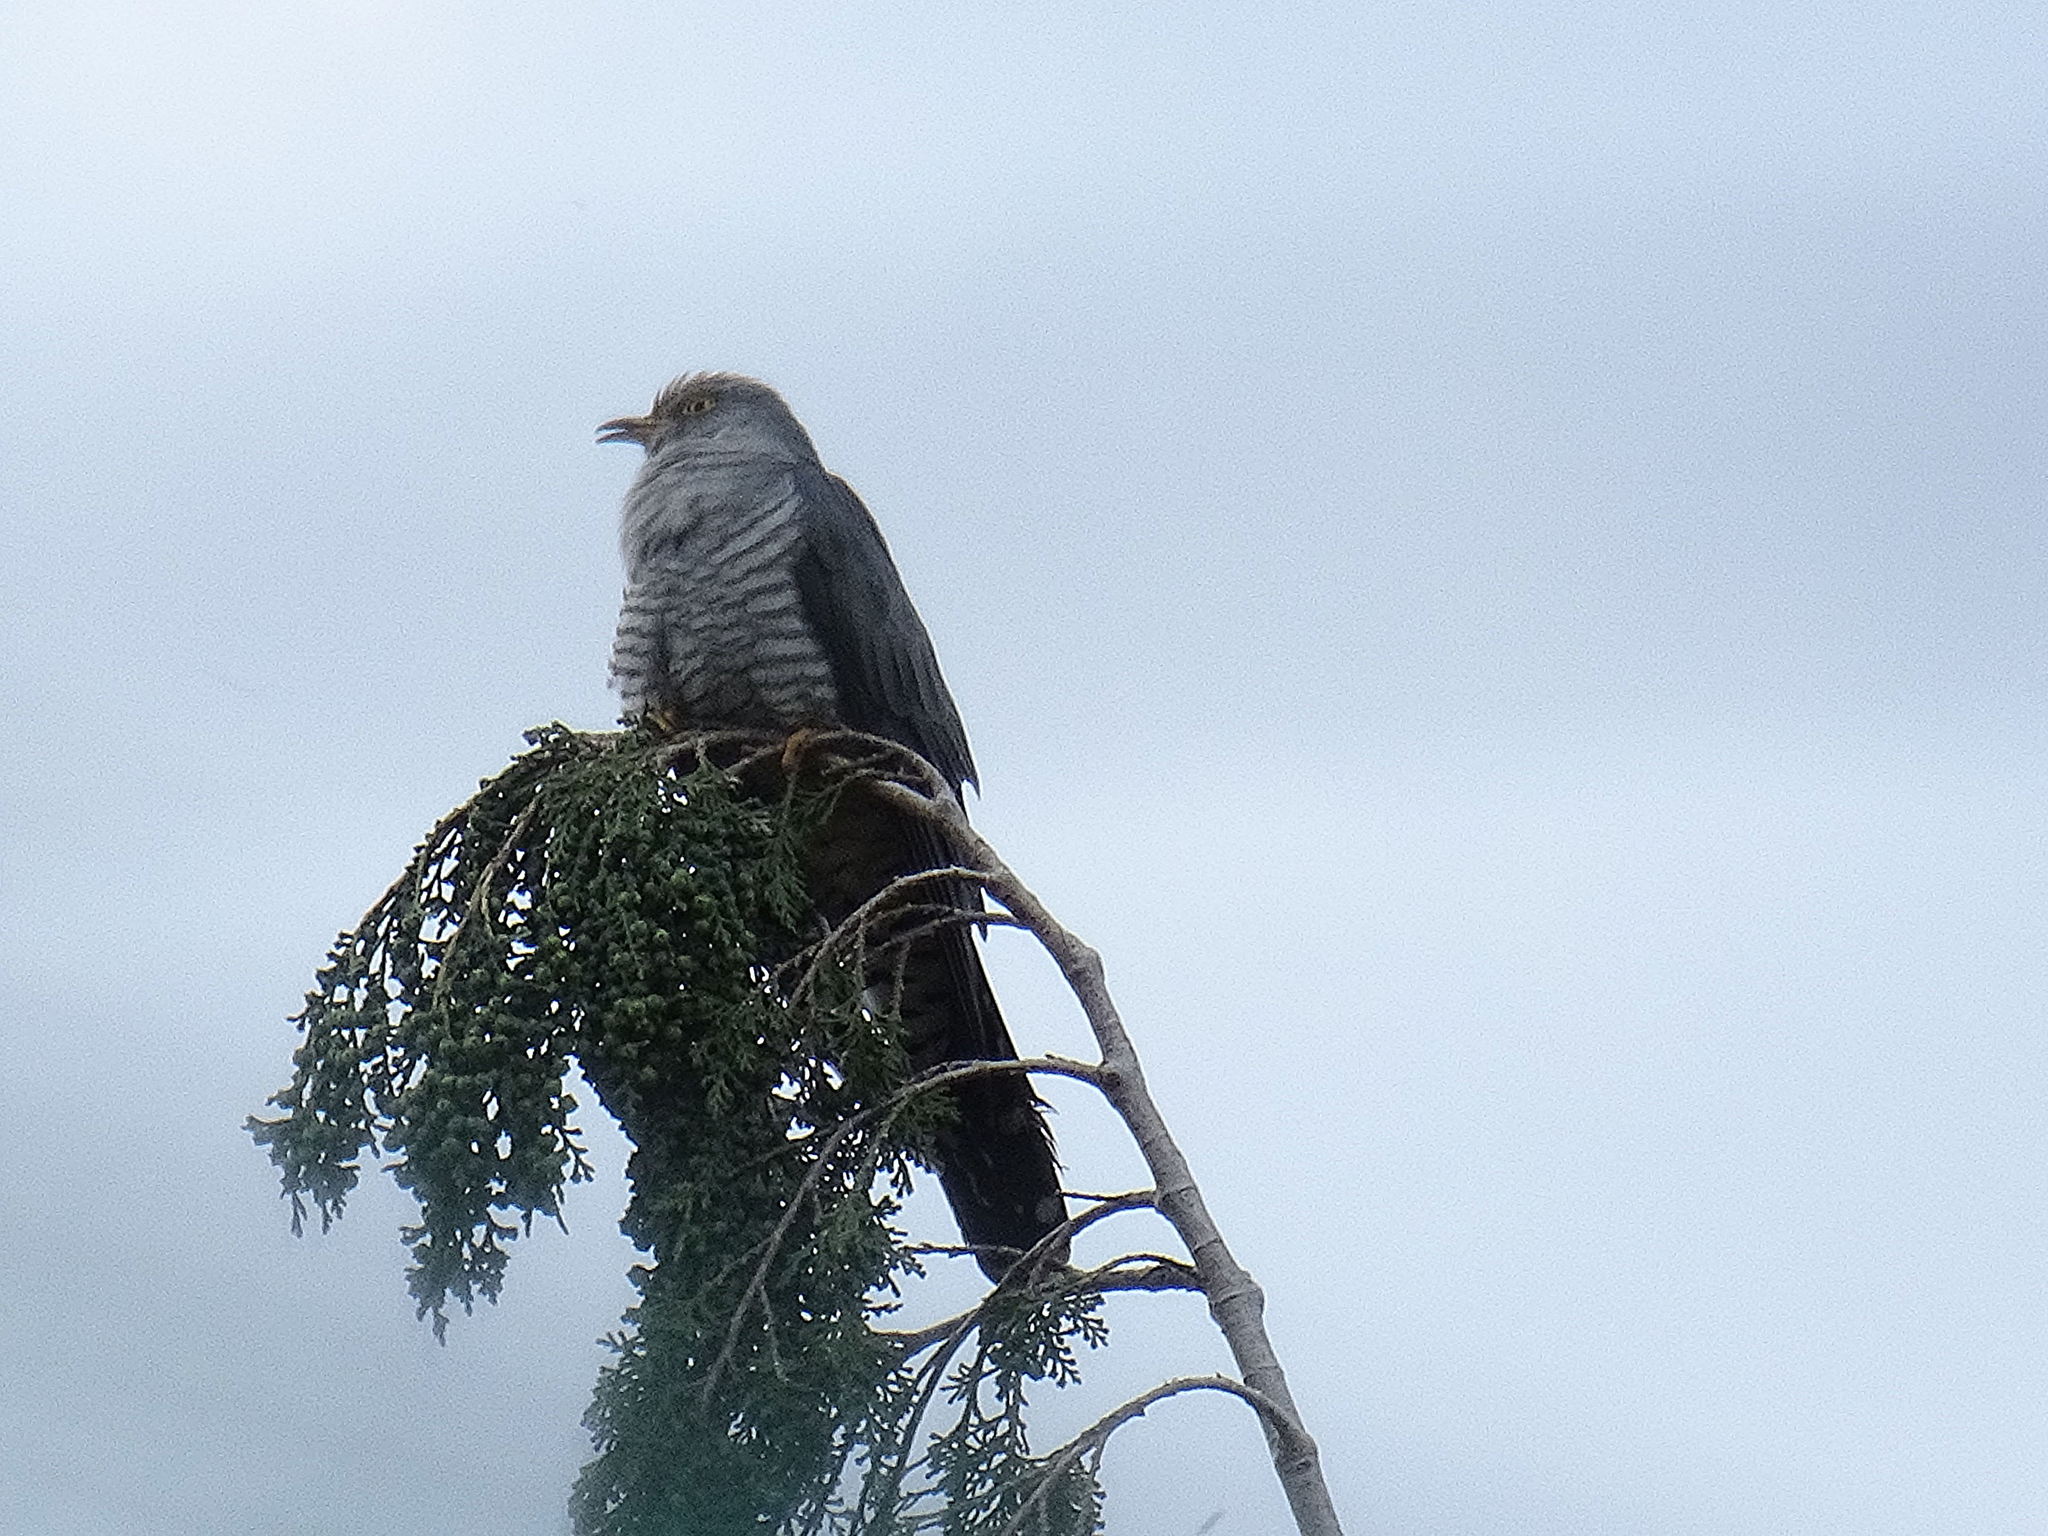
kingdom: Animalia
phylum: Chordata
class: Aves
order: Cuculiformes
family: Cuculidae
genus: Cuculus
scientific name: Cuculus canorus
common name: Common cuckoo
